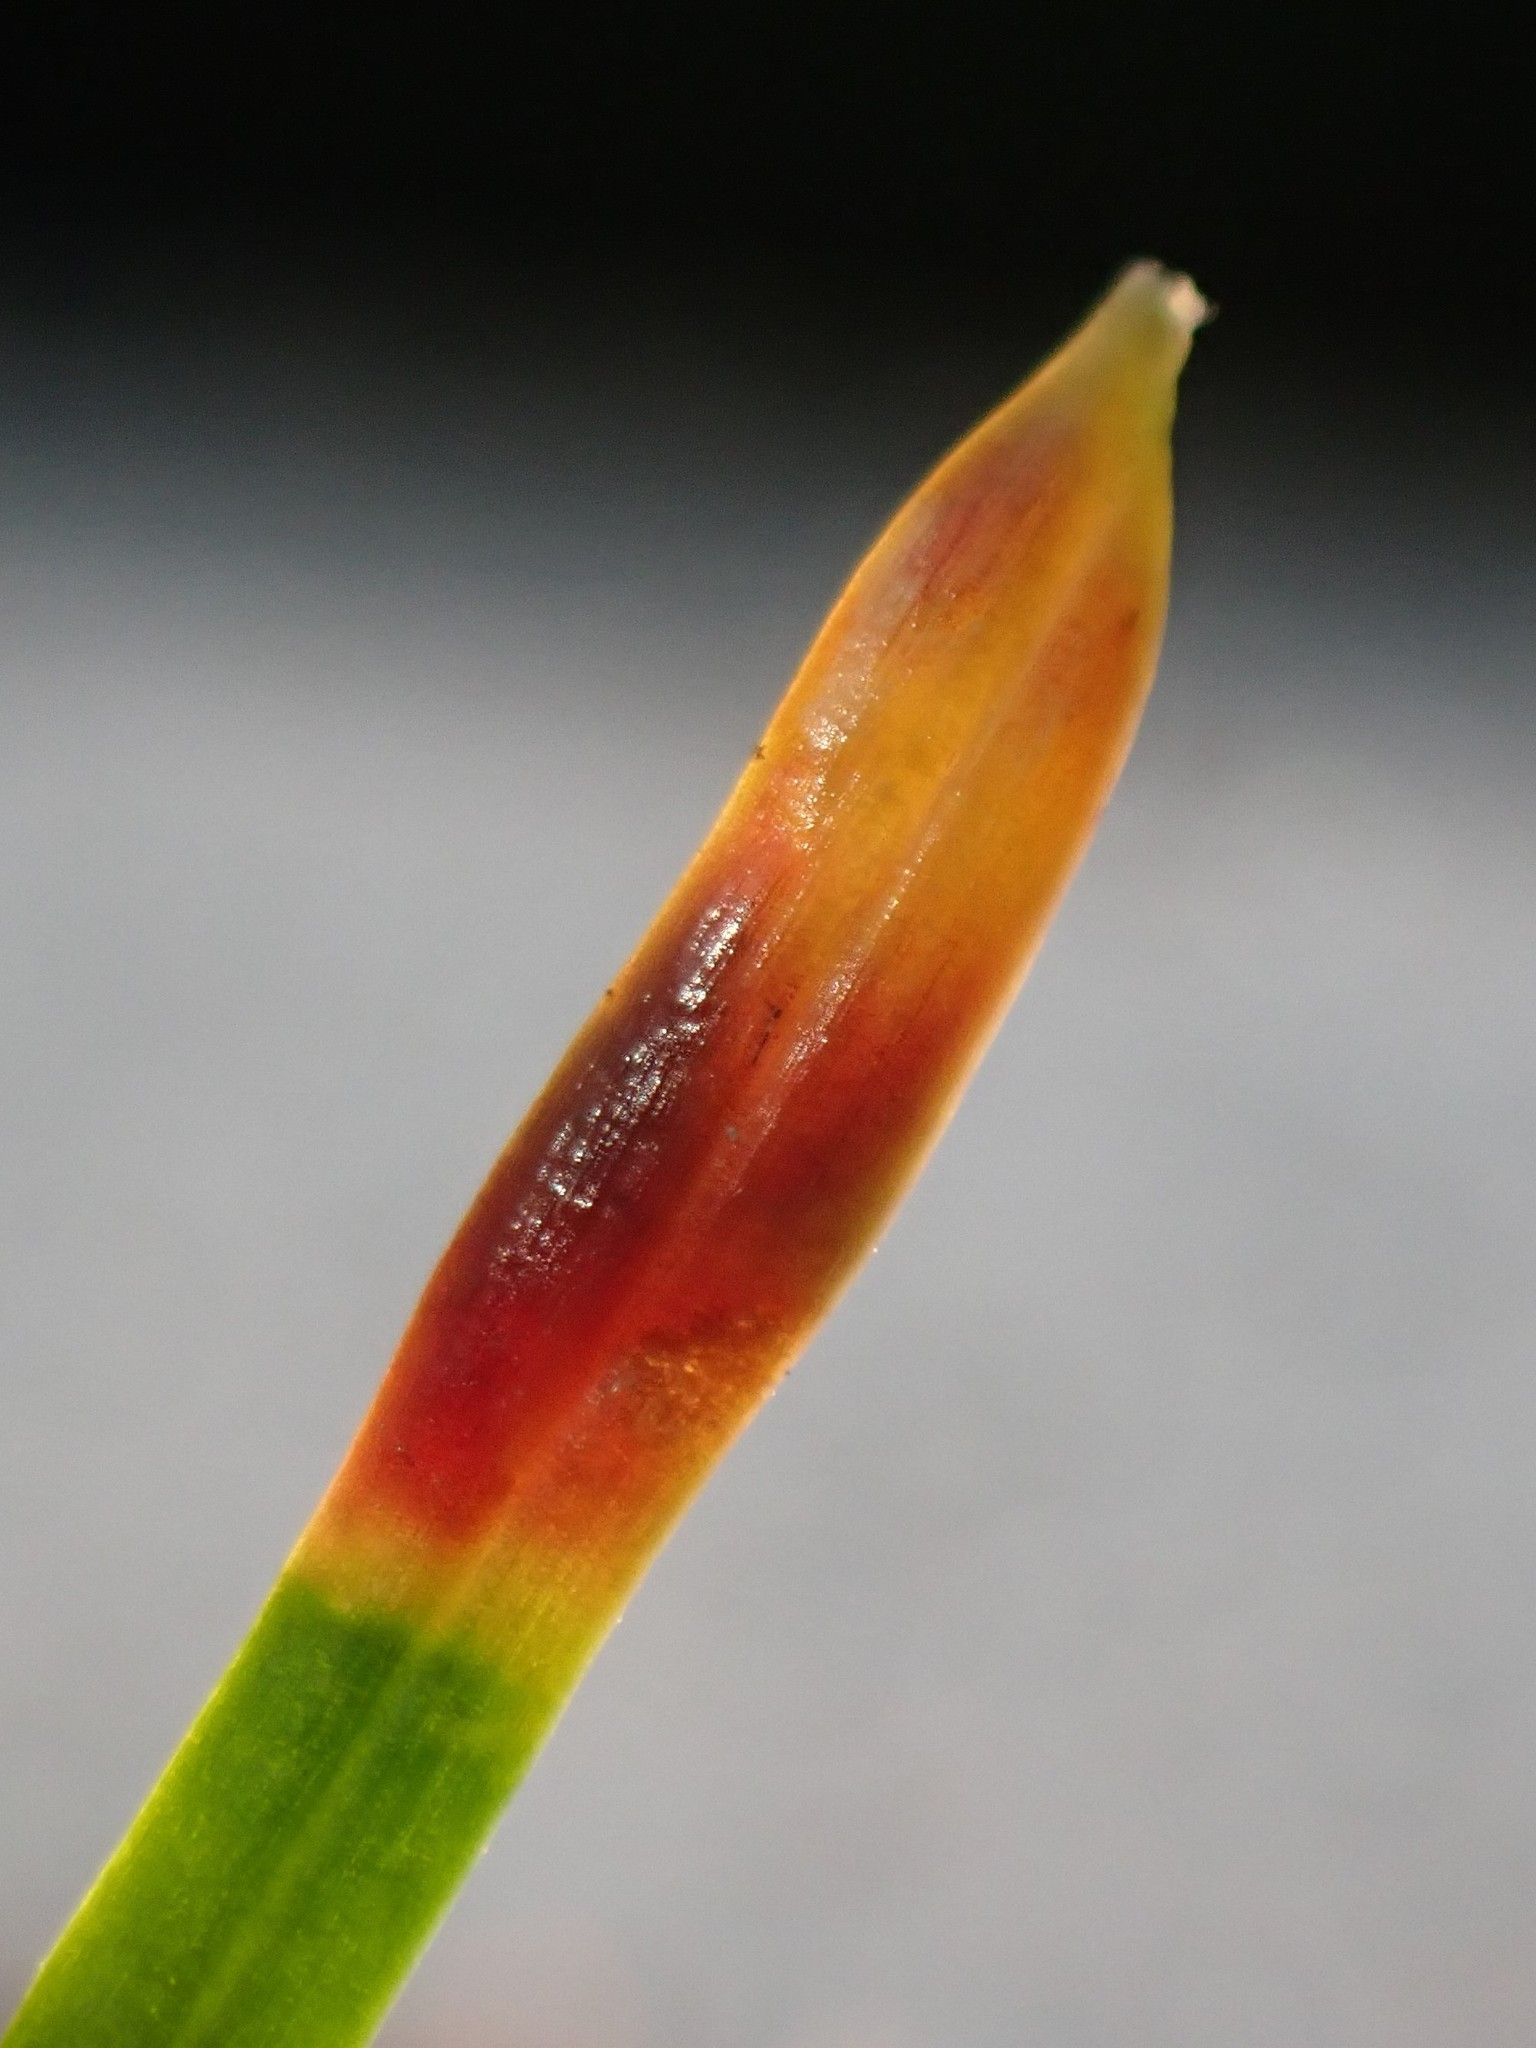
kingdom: Animalia
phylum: Arthropoda
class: Insecta
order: Diptera
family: Cecidomyiidae
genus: Contarinia
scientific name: Contarinia pseudotsugae
